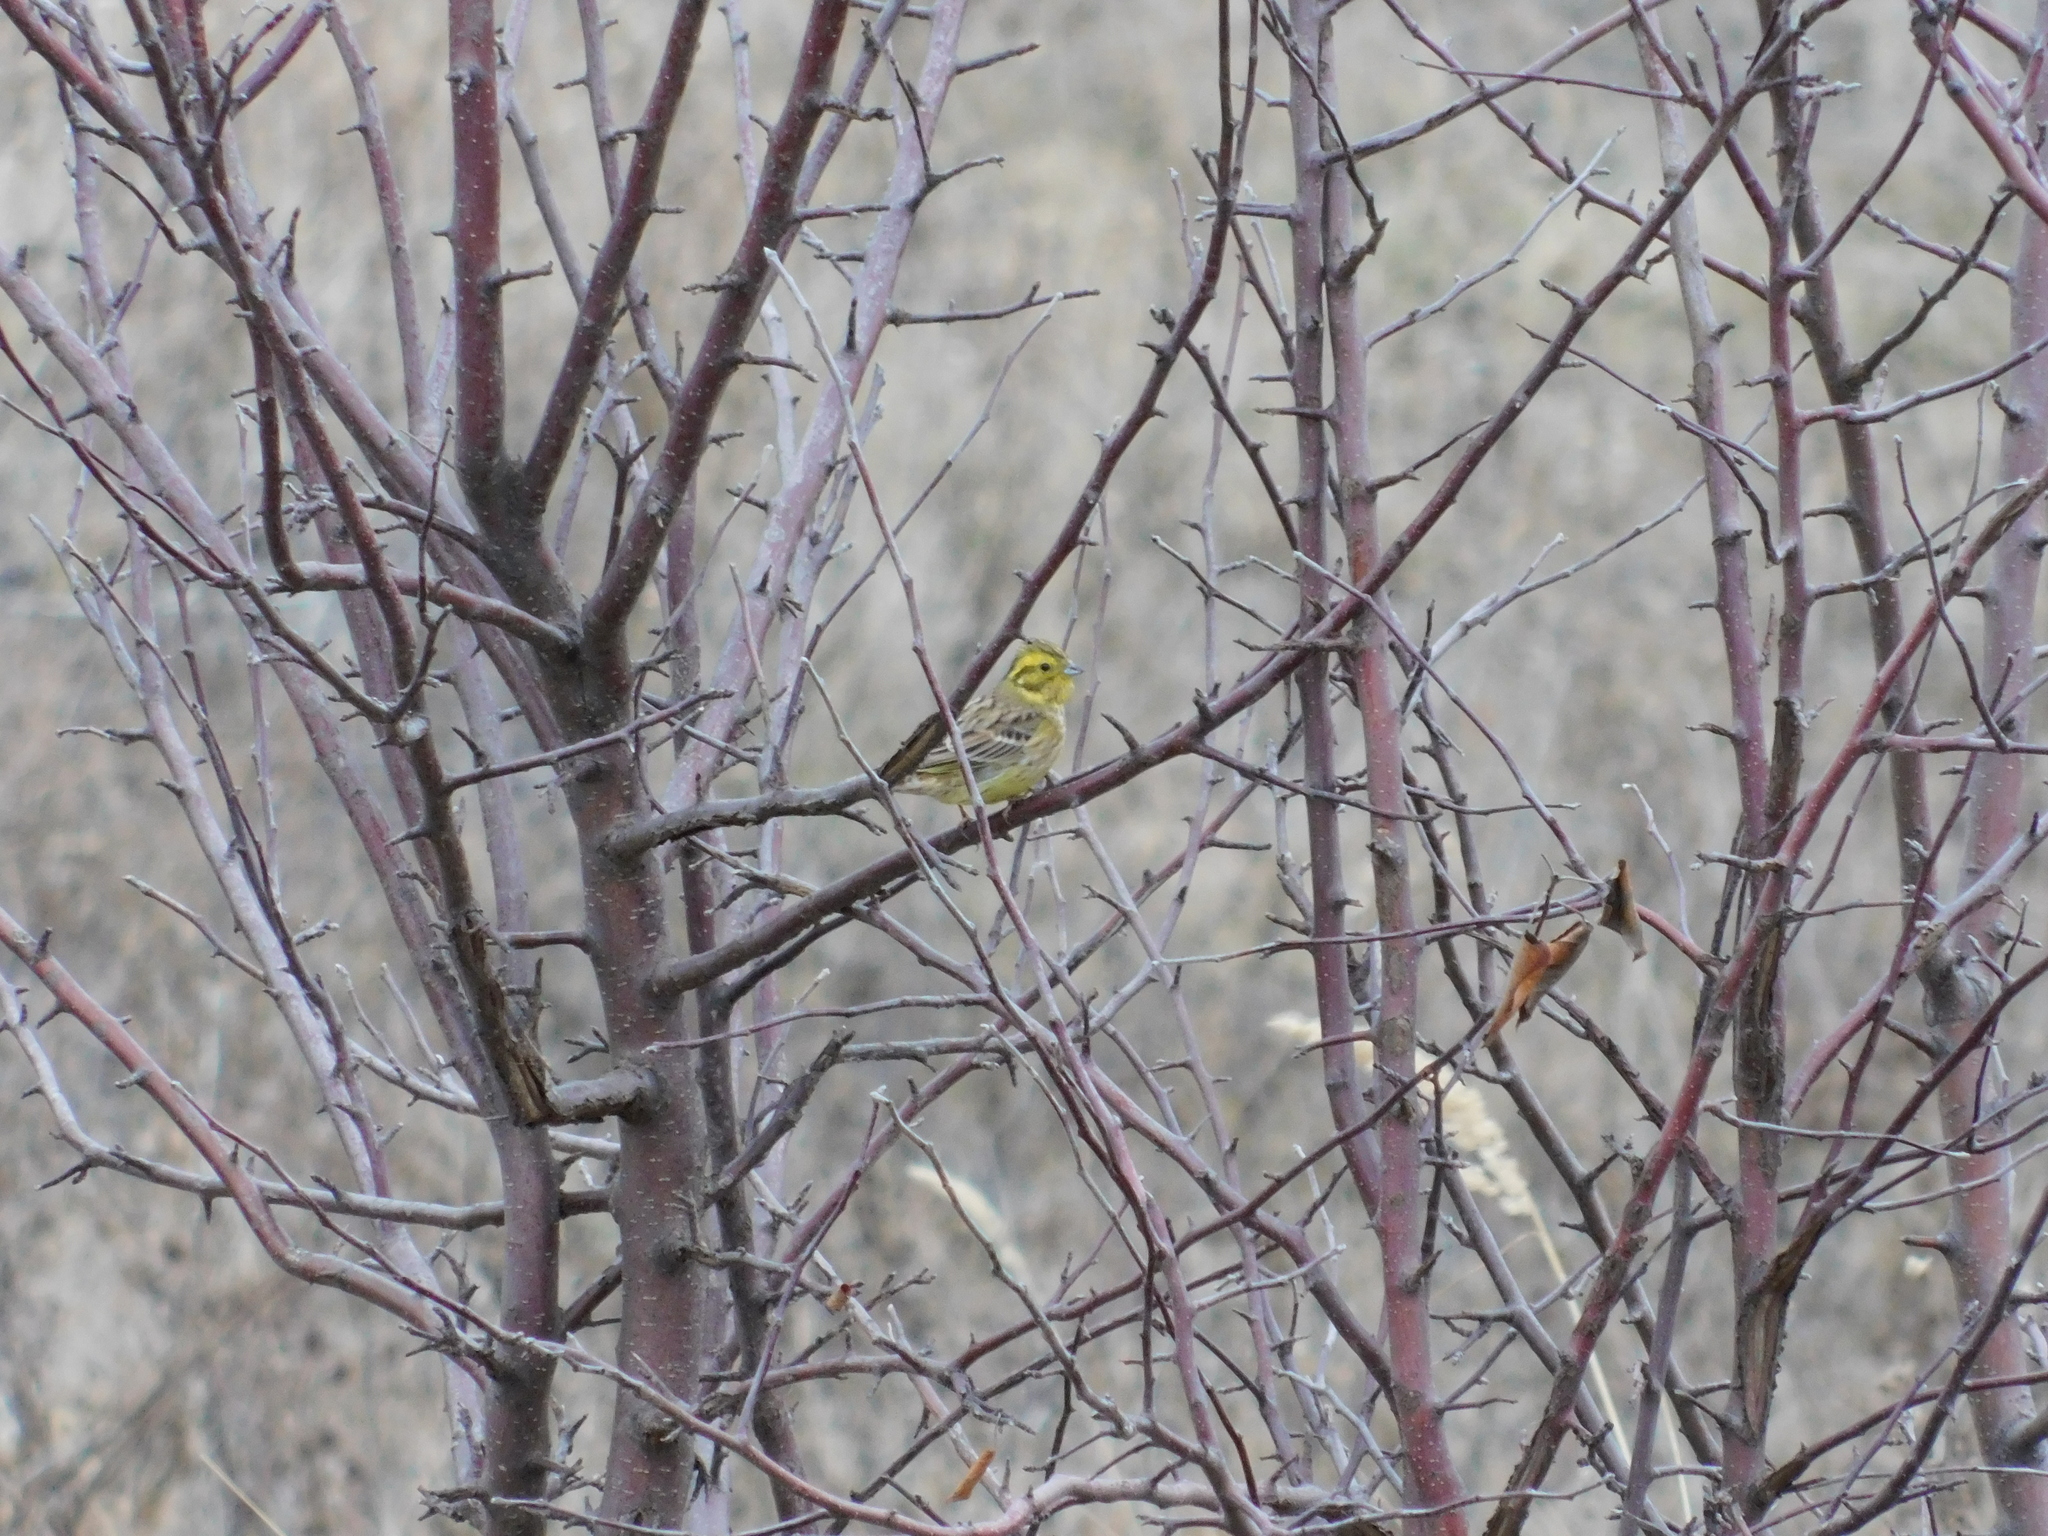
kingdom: Animalia
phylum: Chordata
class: Aves
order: Passeriformes
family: Emberizidae
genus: Emberiza
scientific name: Emberiza citrinella
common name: Yellowhammer
